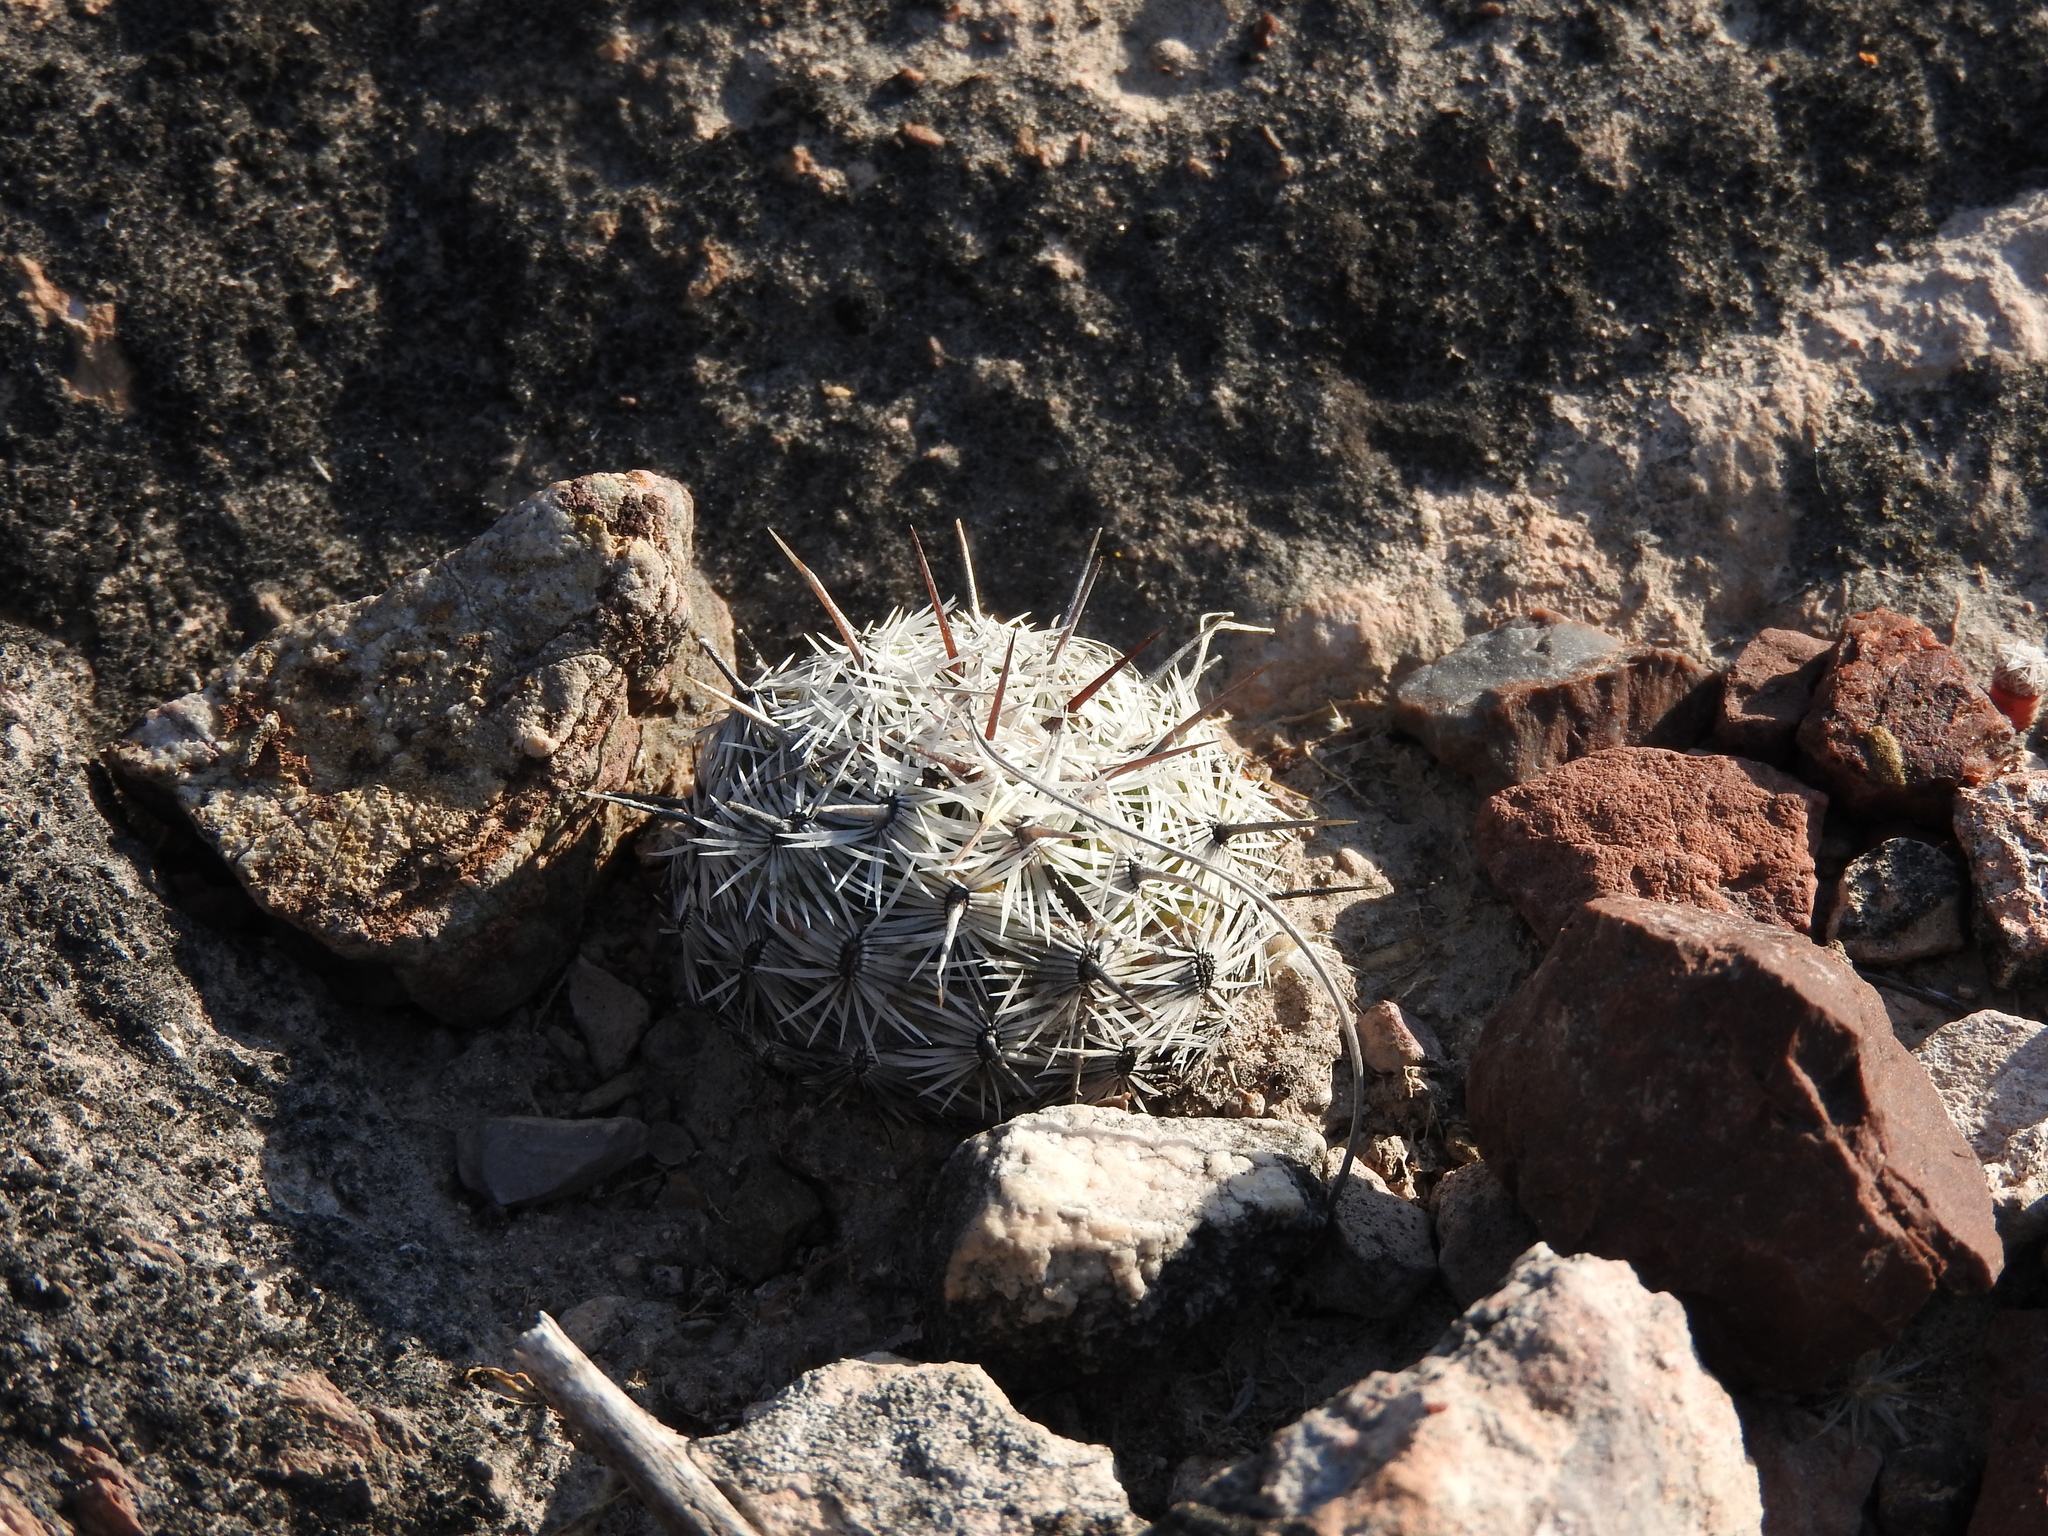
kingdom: Plantae
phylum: Tracheophyta
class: Magnoliopsida
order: Caryophyllales
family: Cactaceae
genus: Cochemiea
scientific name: Cochemiea conoidea
